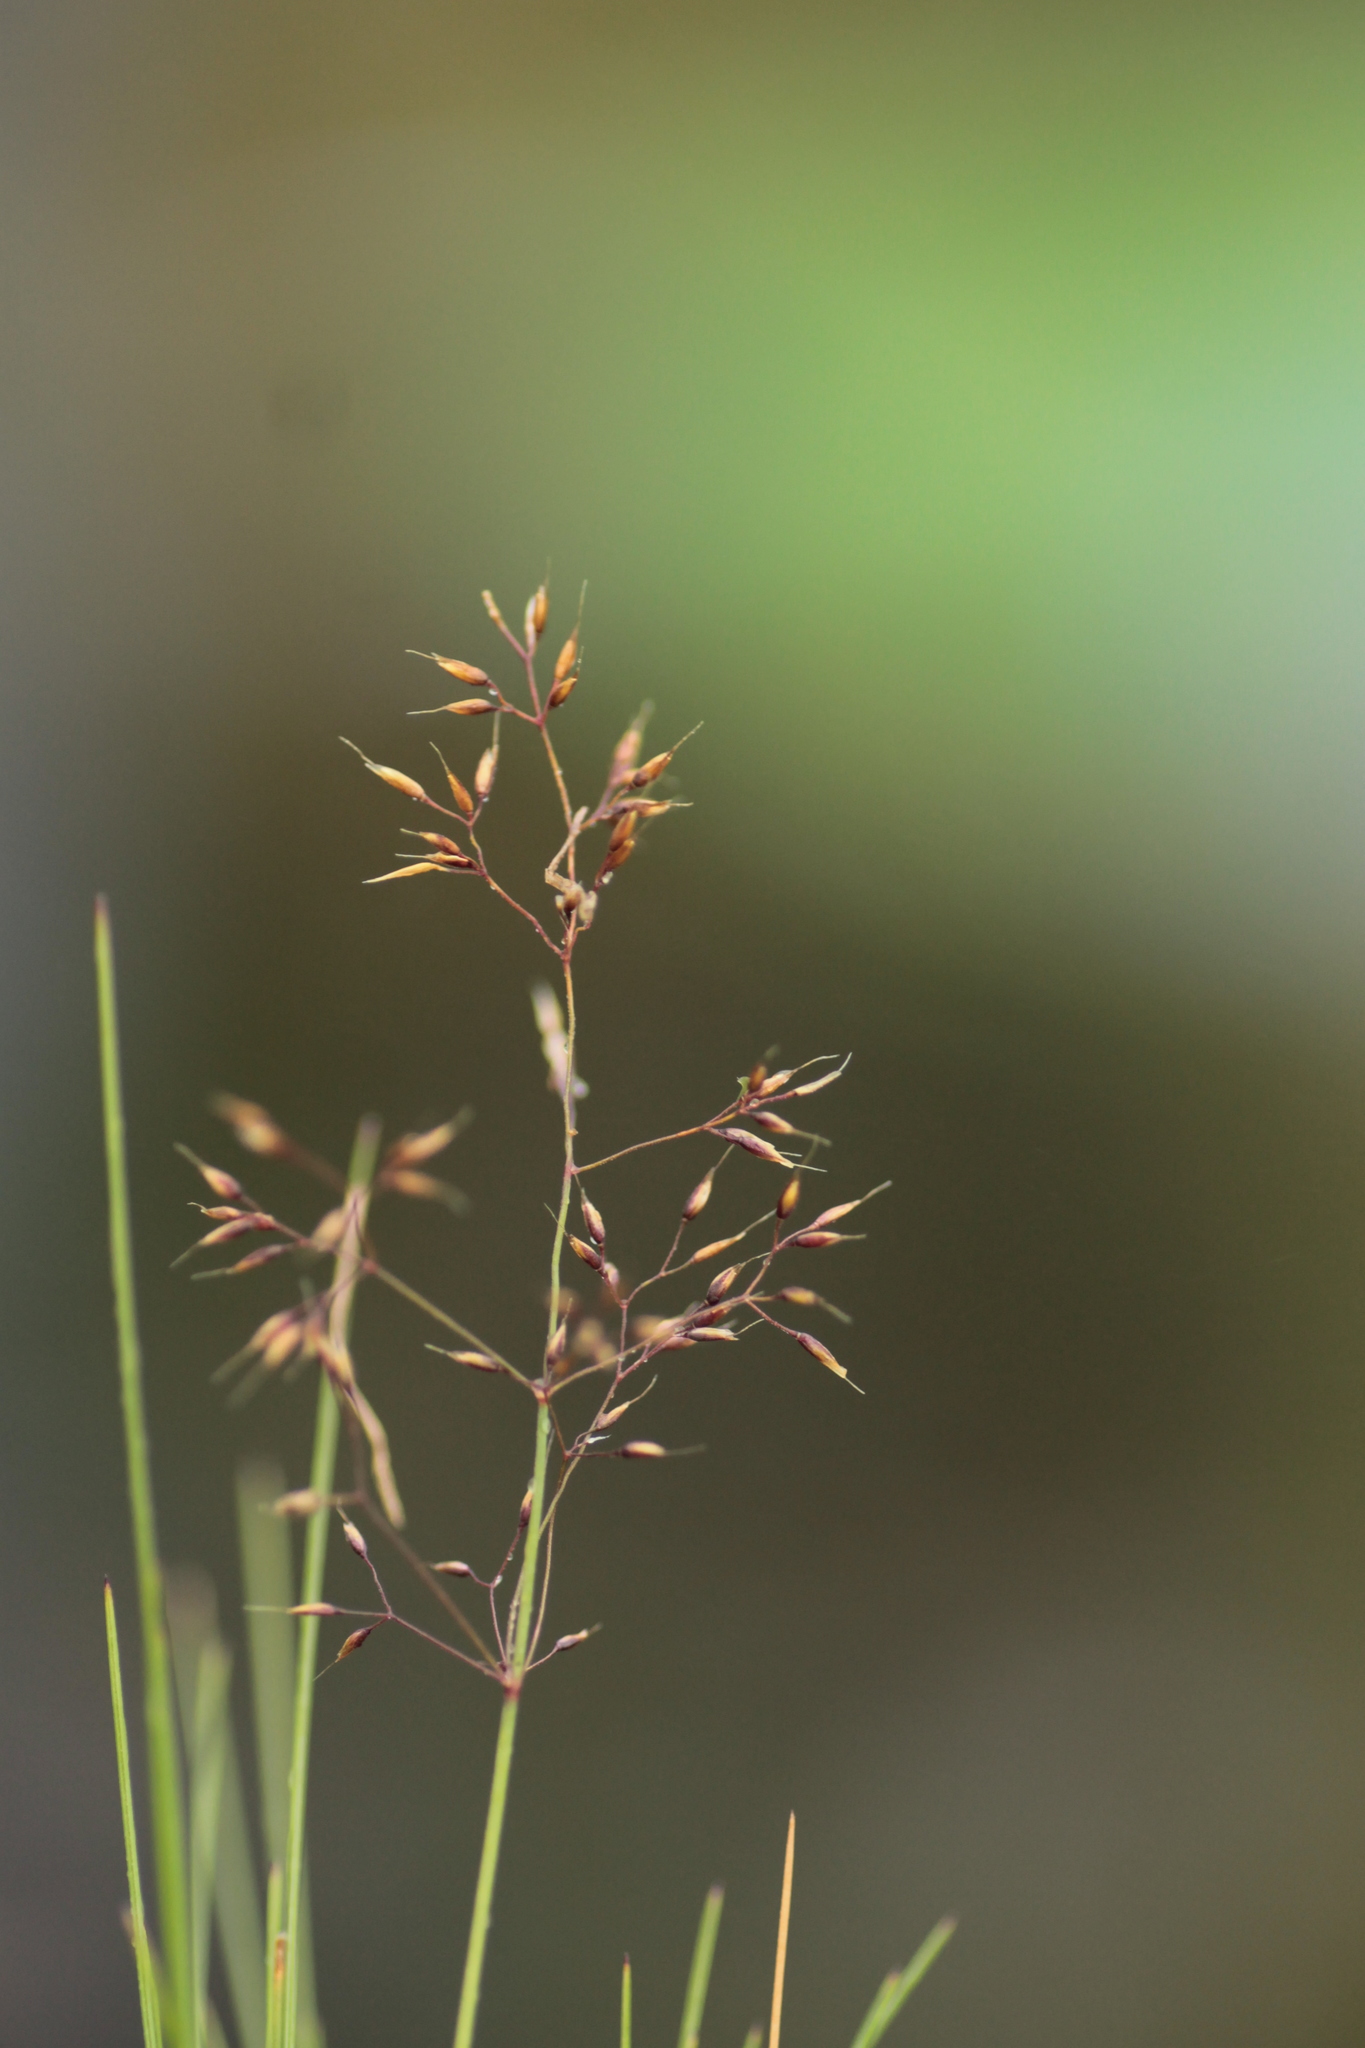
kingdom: Plantae
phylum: Tracheophyta
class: Liliopsida
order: Poales
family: Poaceae
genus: Agrostis
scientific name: Agrostis alpina
